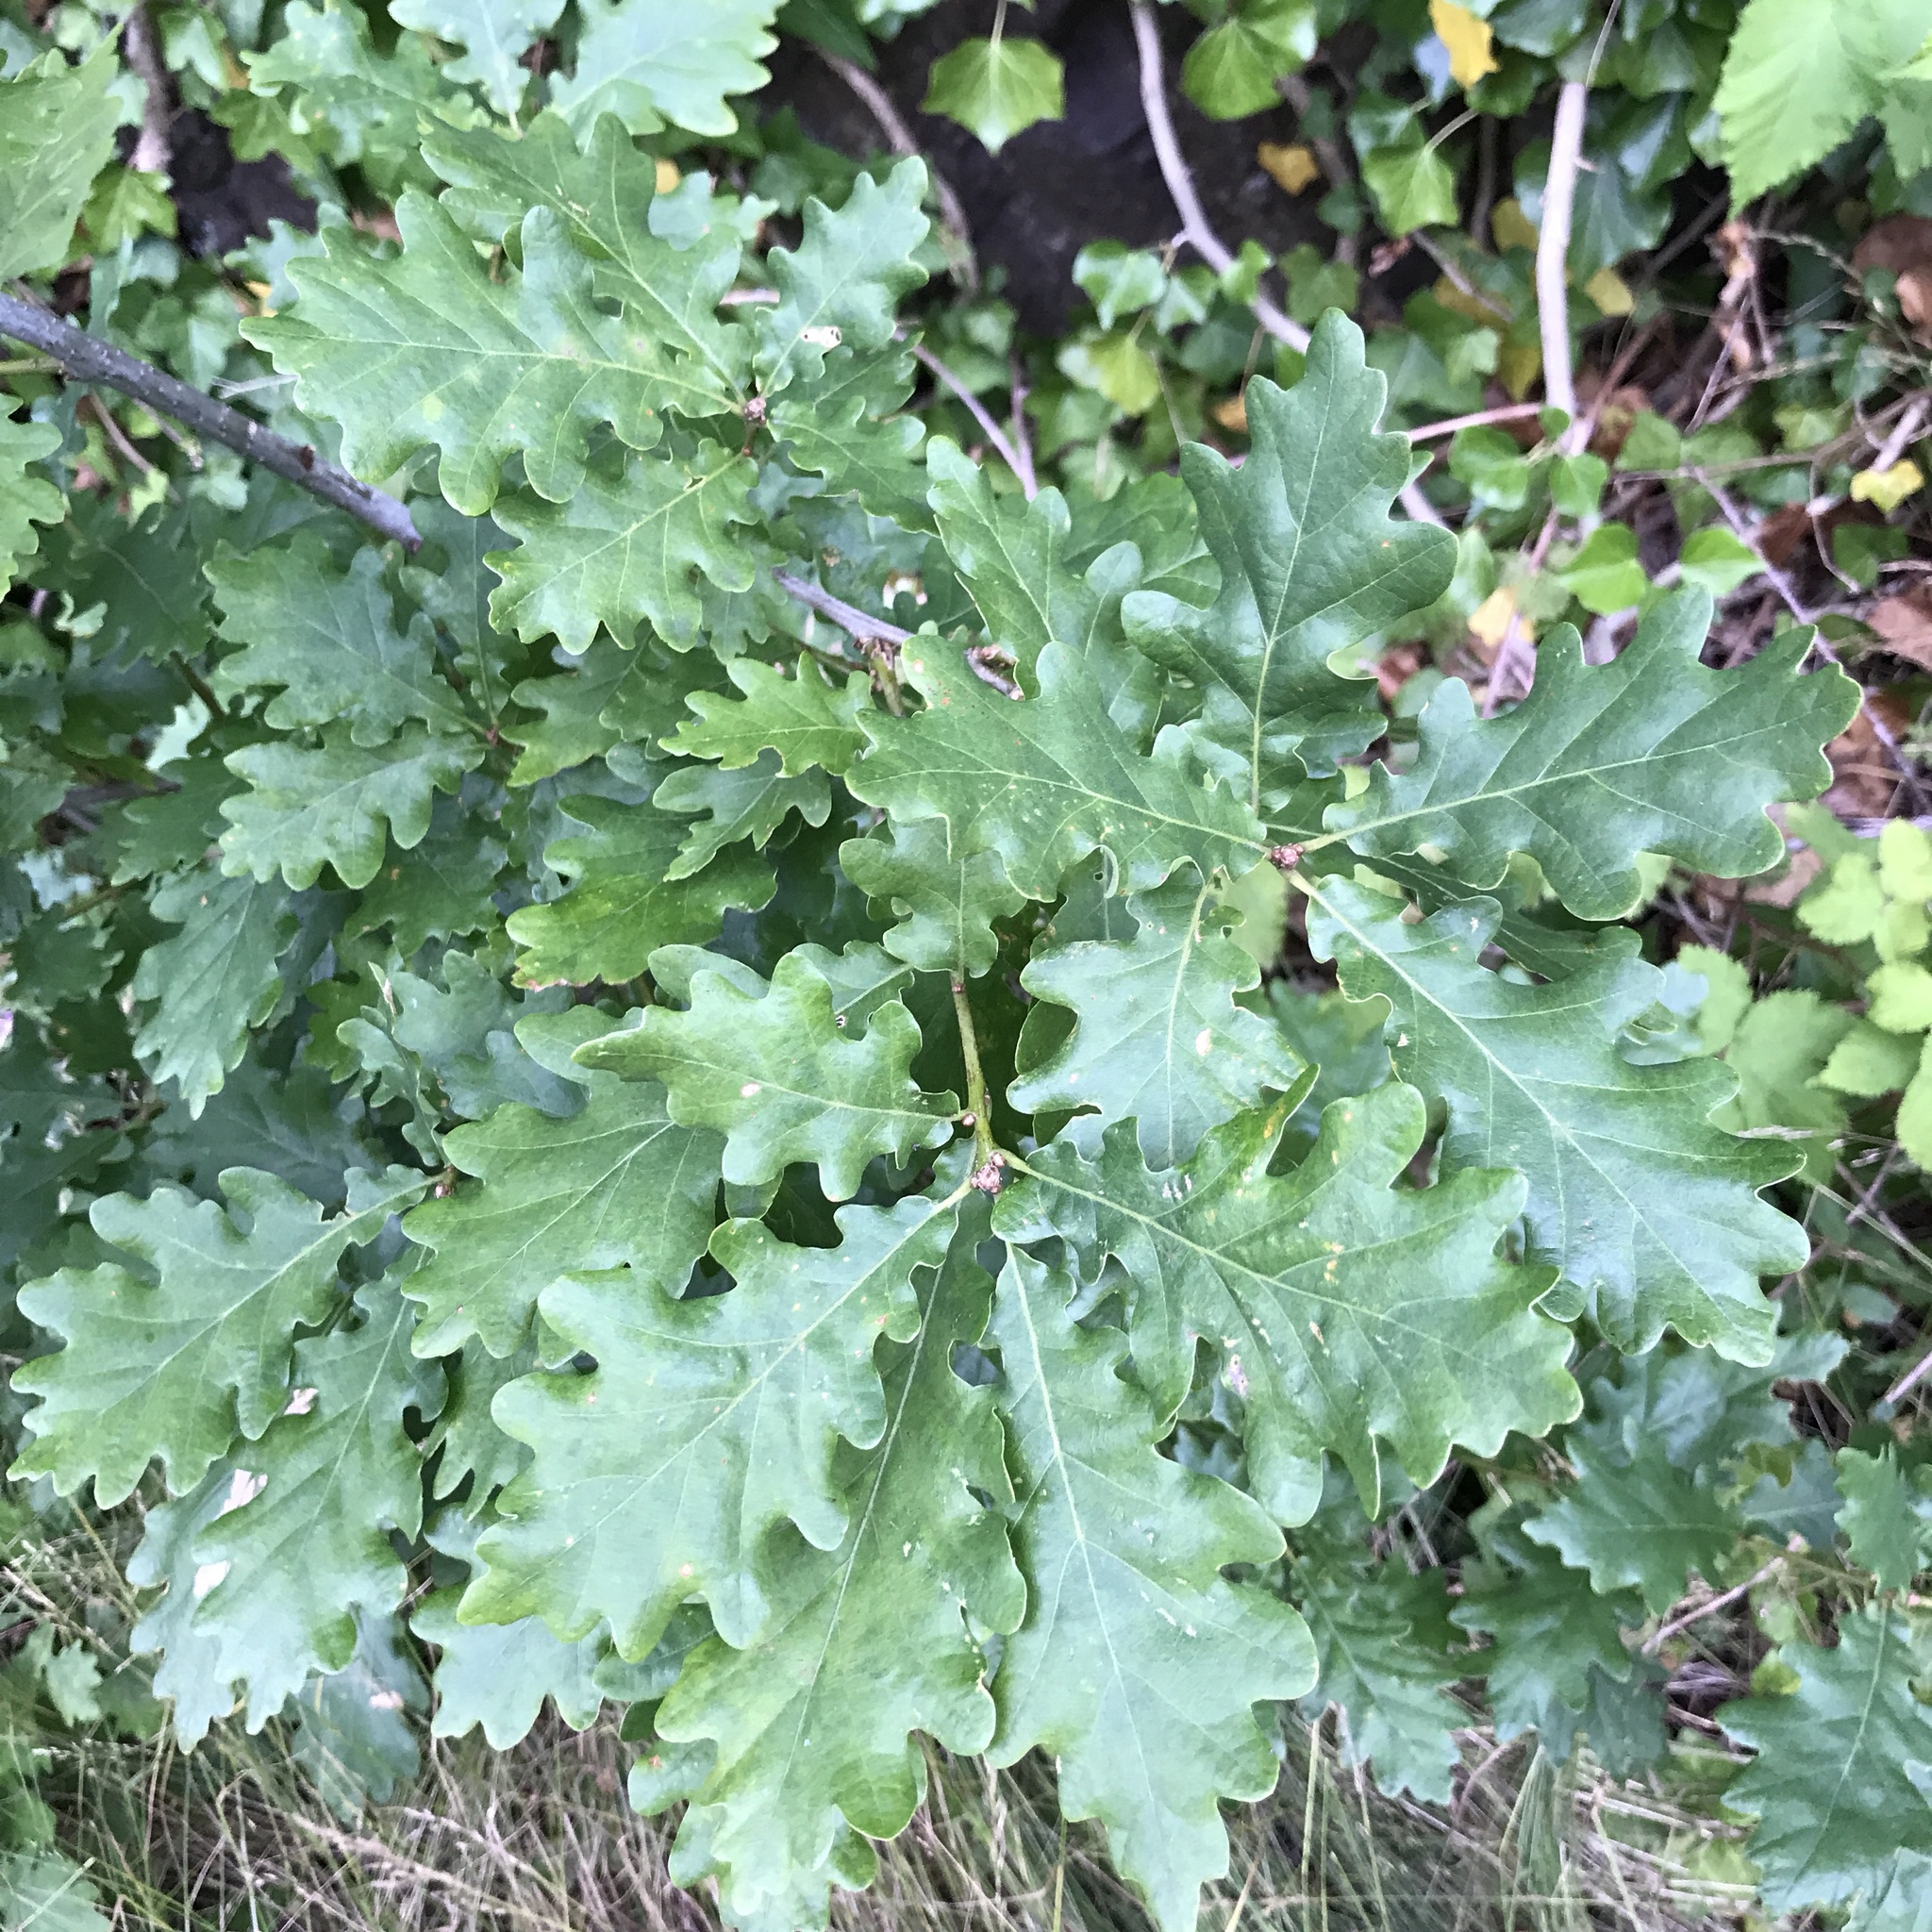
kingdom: Plantae
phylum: Tracheophyta
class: Magnoliopsida
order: Fagales
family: Fagaceae
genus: Quercus
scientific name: Quercus robur
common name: Pedunculate oak
